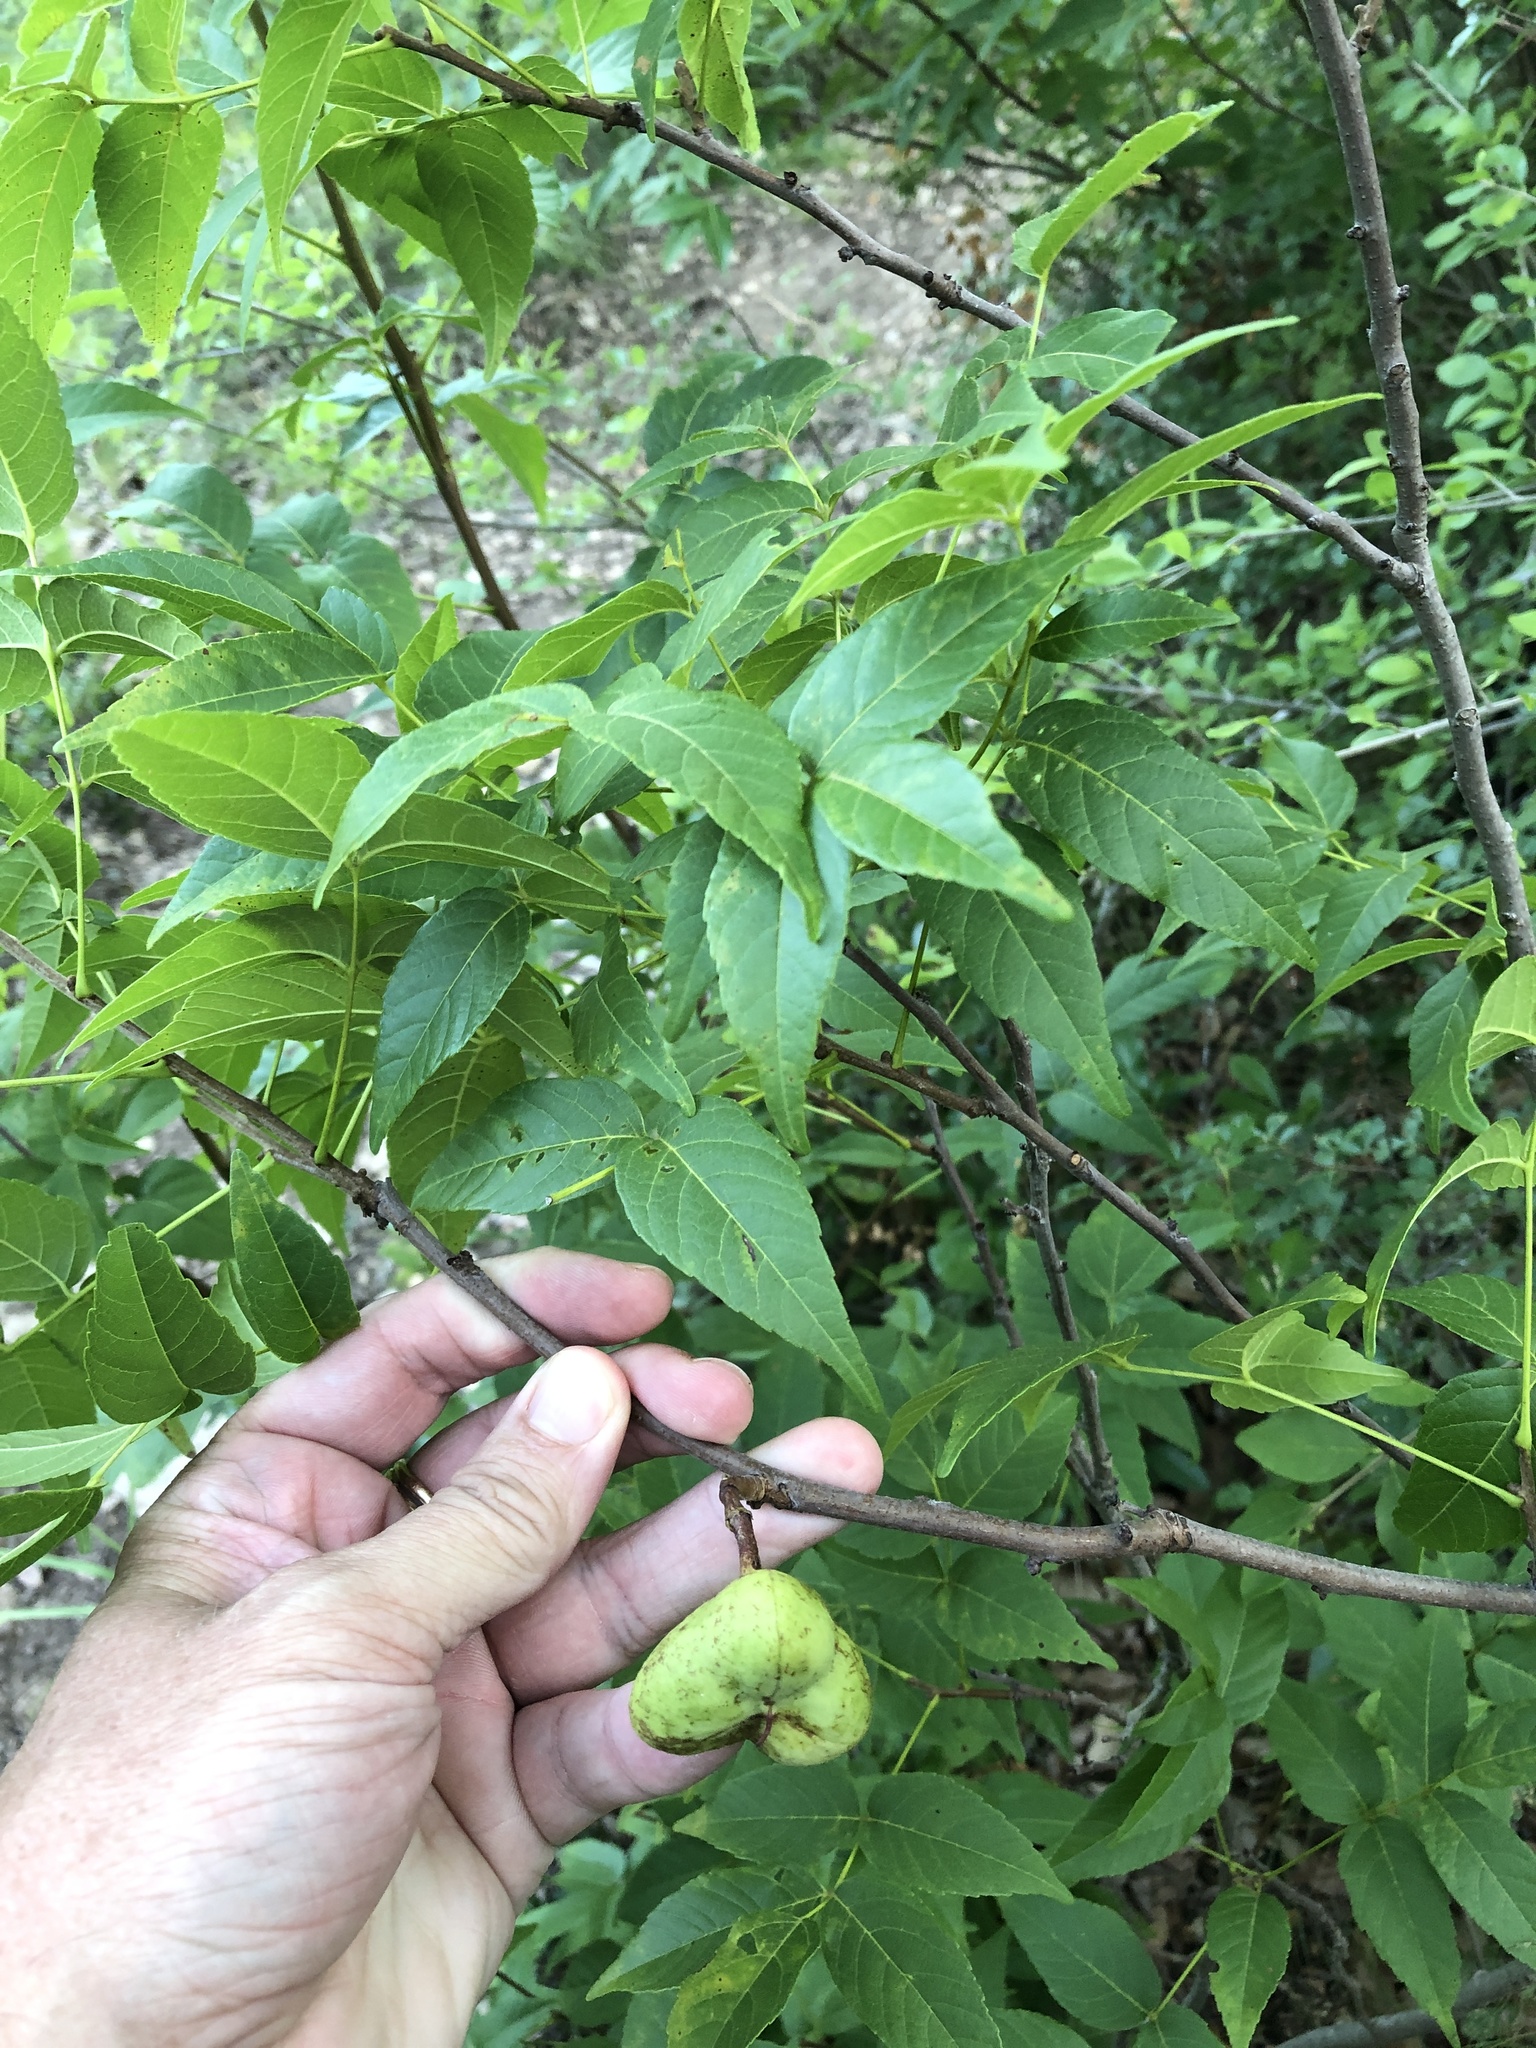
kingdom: Plantae
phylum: Tracheophyta
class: Magnoliopsida
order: Sapindales
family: Sapindaceae
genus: Ungnadia
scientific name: Ungnadia speciosa
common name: Texas-buckeye
